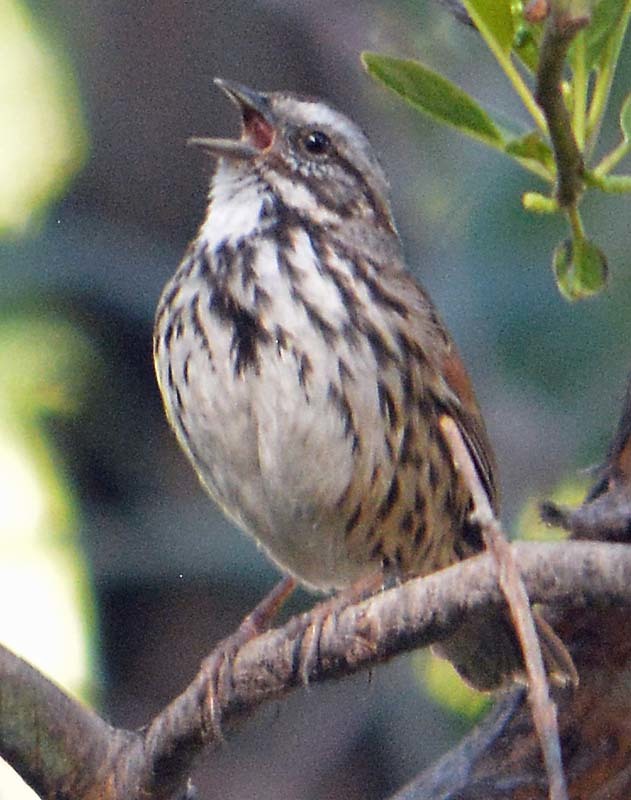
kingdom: Animalia
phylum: Chordata
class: Aves
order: Passeriformes
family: Passerellidae
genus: Melospiza
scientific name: Melospiza melodia
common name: Song sparrow
